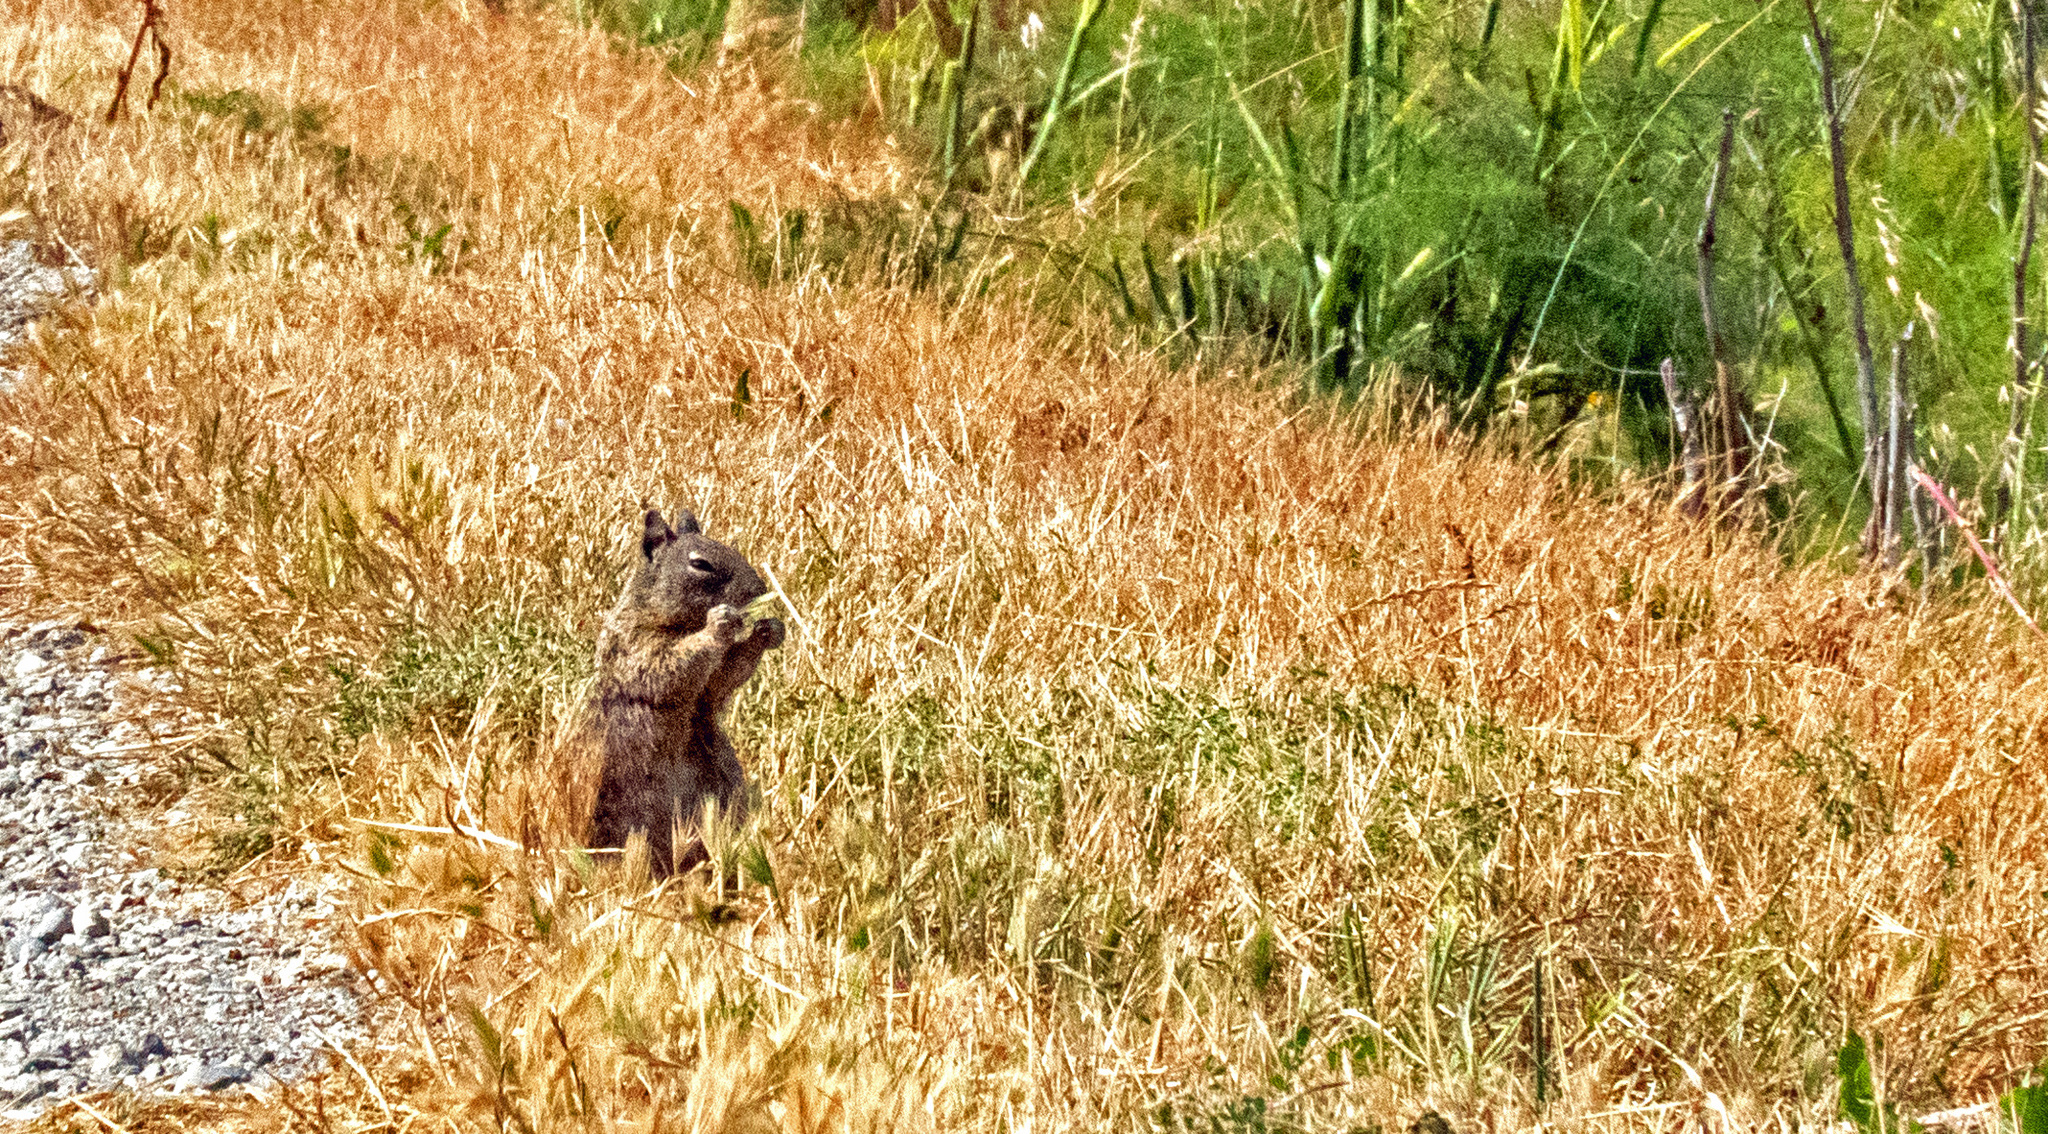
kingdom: Animalia
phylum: Chordata
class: Mammalia
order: Rodentia
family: Sciuridae
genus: Otospermophilus
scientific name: Otospermophilus beecheyi
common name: California ground squirrel
